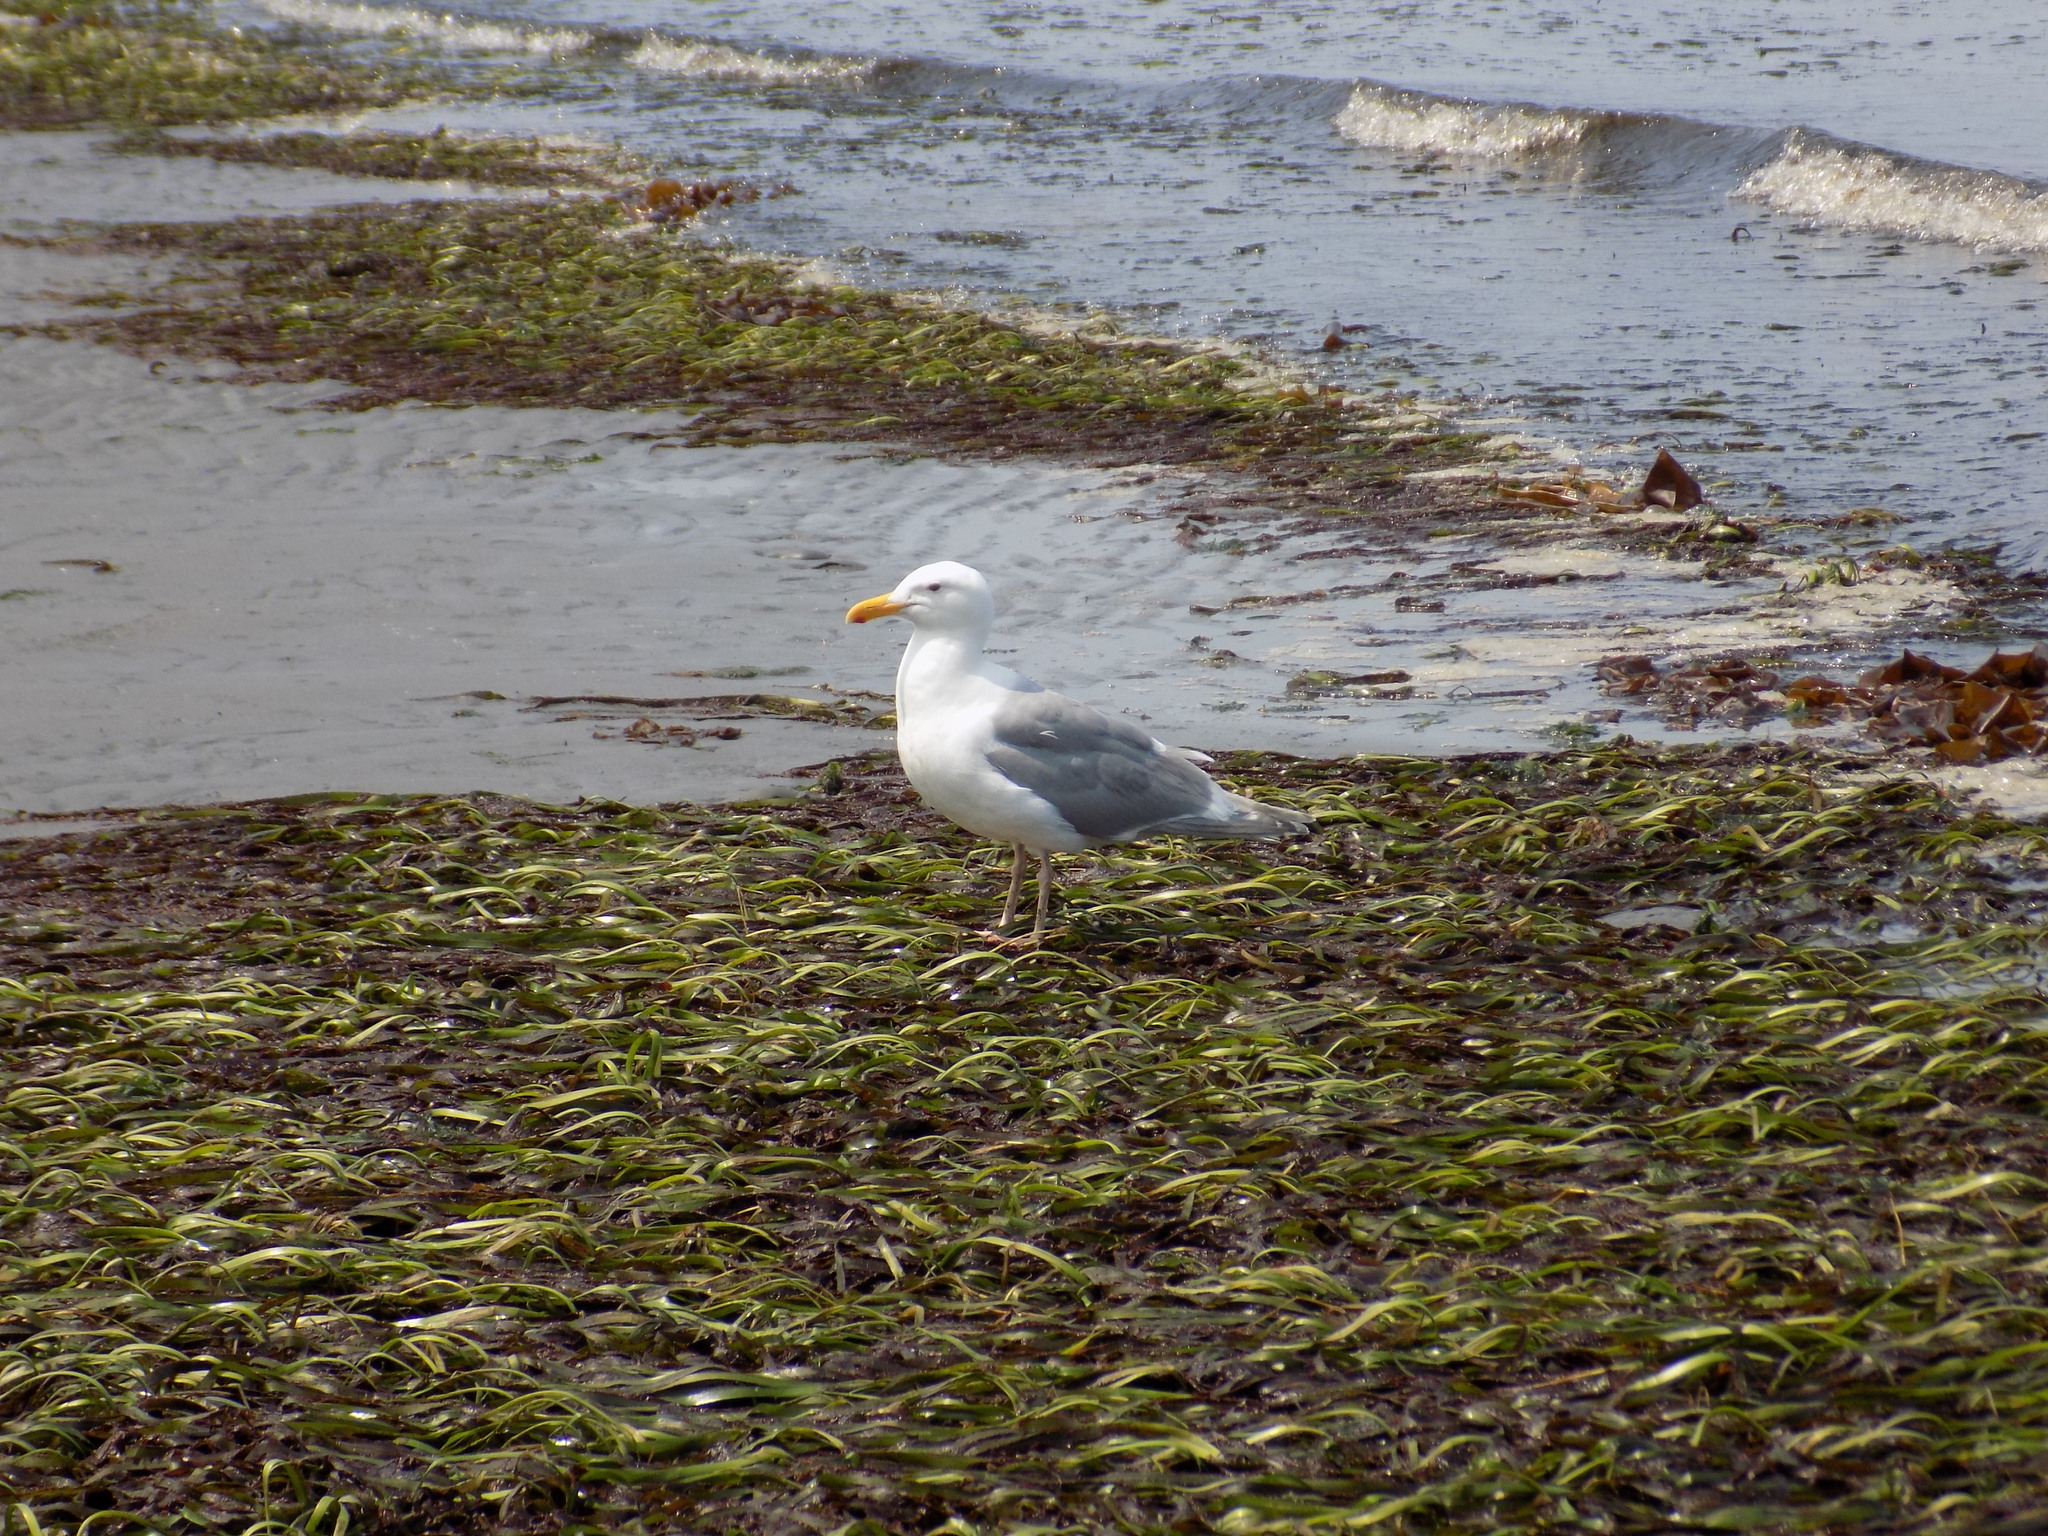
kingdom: Animalia
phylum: Chordata
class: Aves
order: Charadriiformes
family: Laridae
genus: Larus
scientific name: Larus
